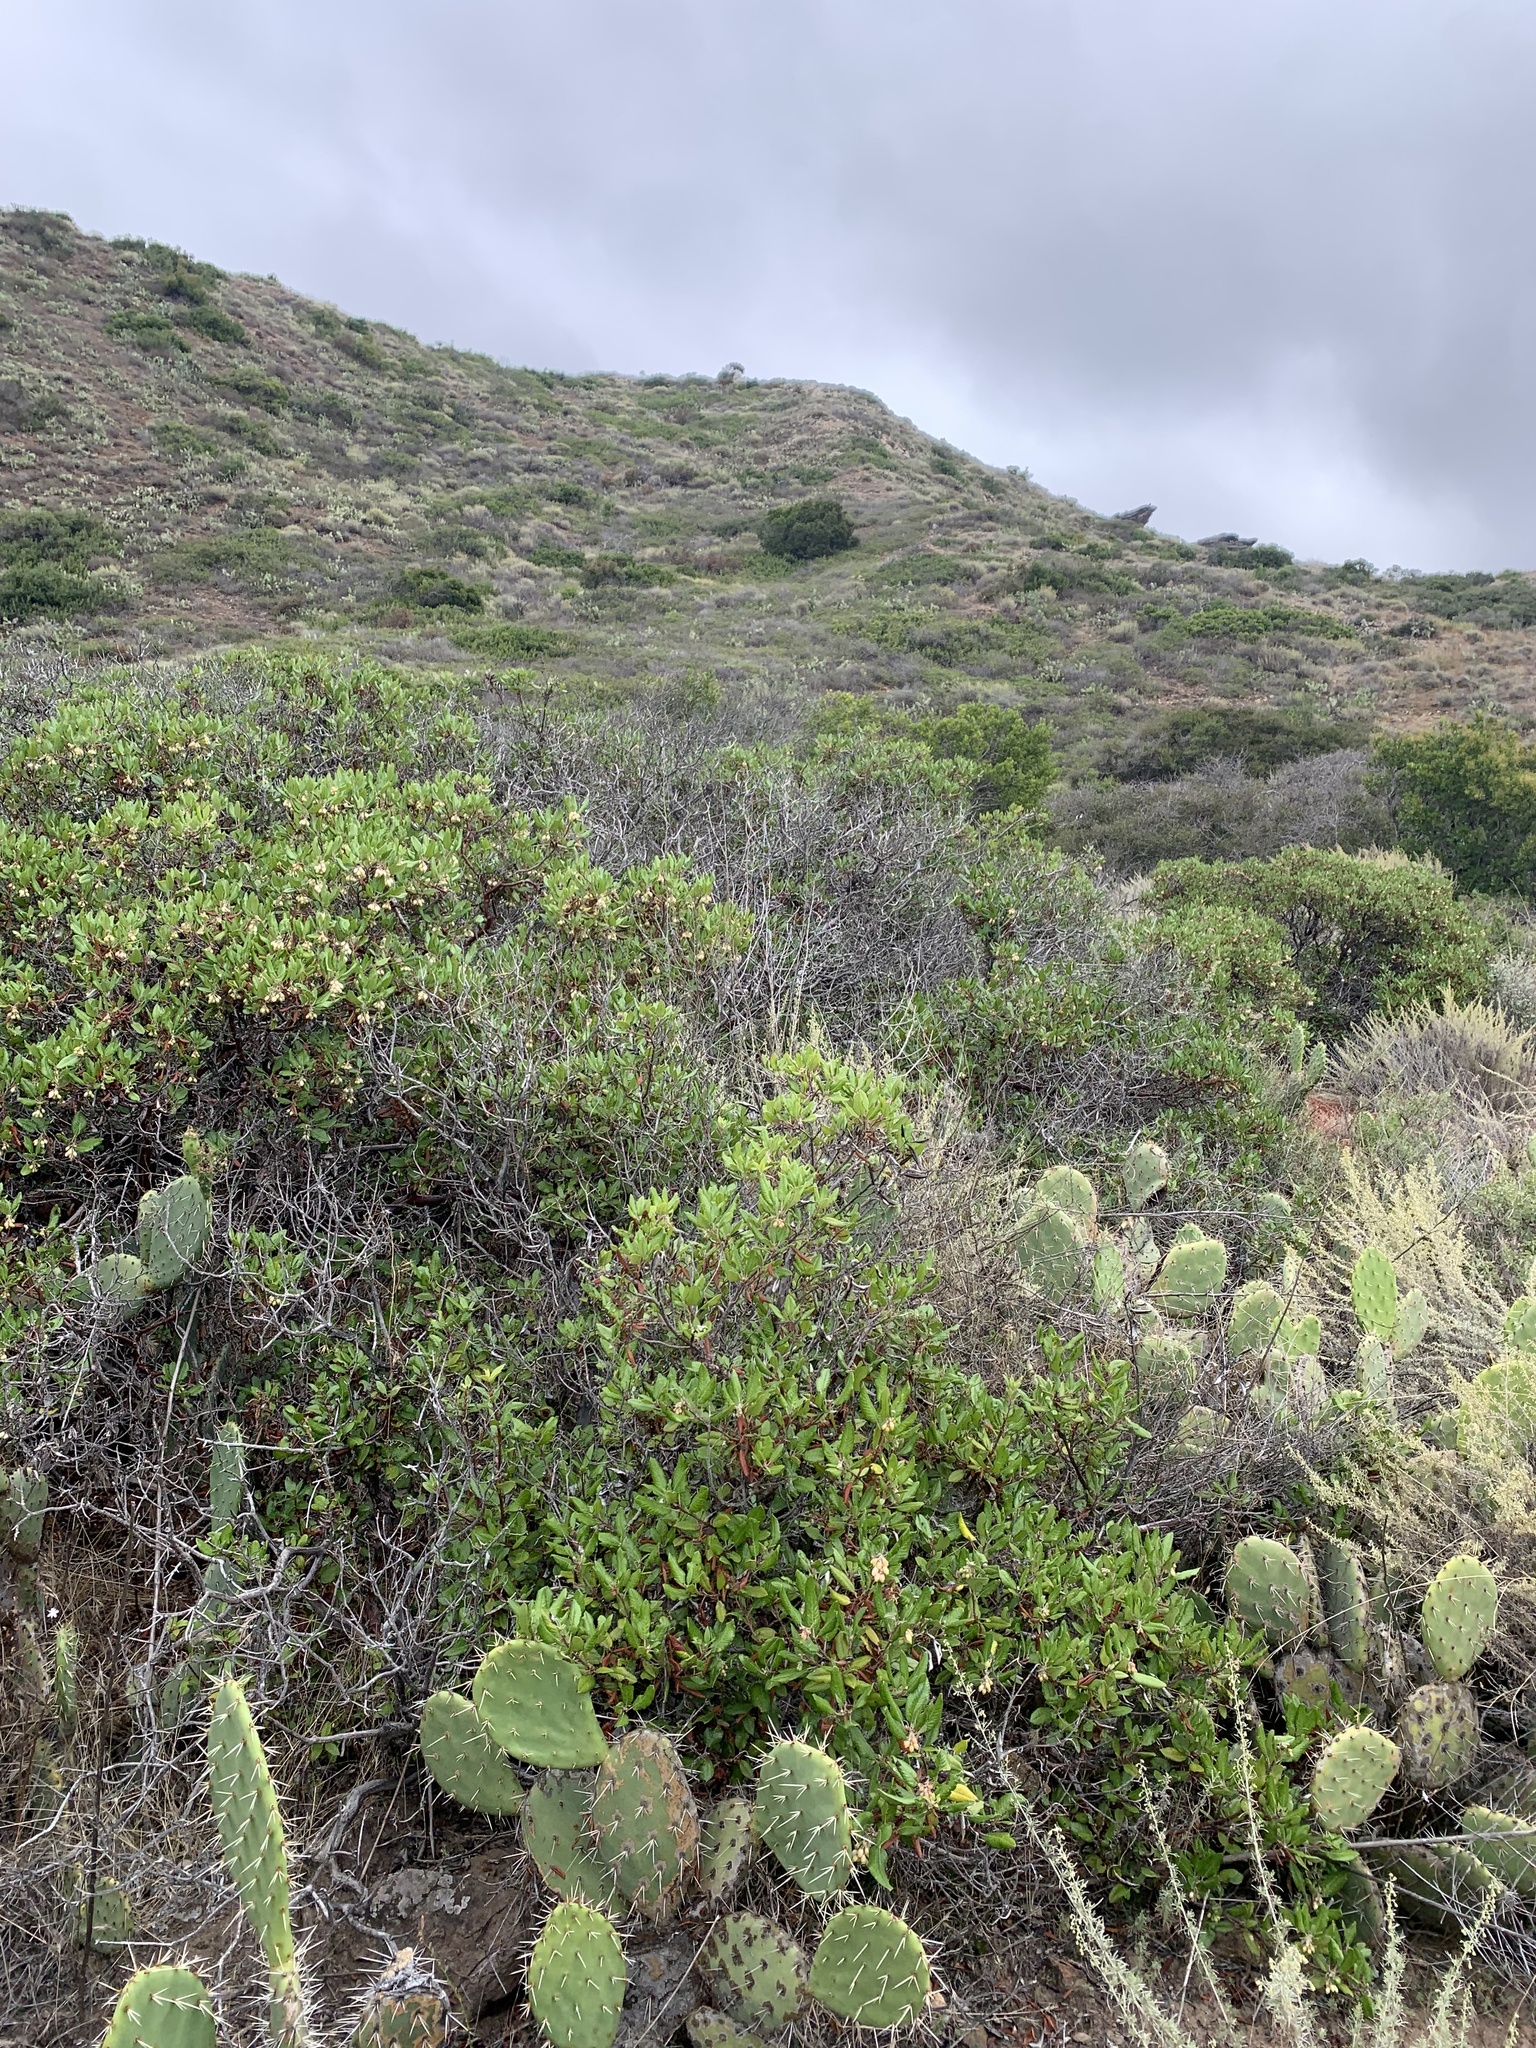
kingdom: Plantae
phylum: Tracheophyta
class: Magnoliopsida
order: Ericales
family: Ericaceae
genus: Arctostaphylos
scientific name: Arctostaphylos bicolor
